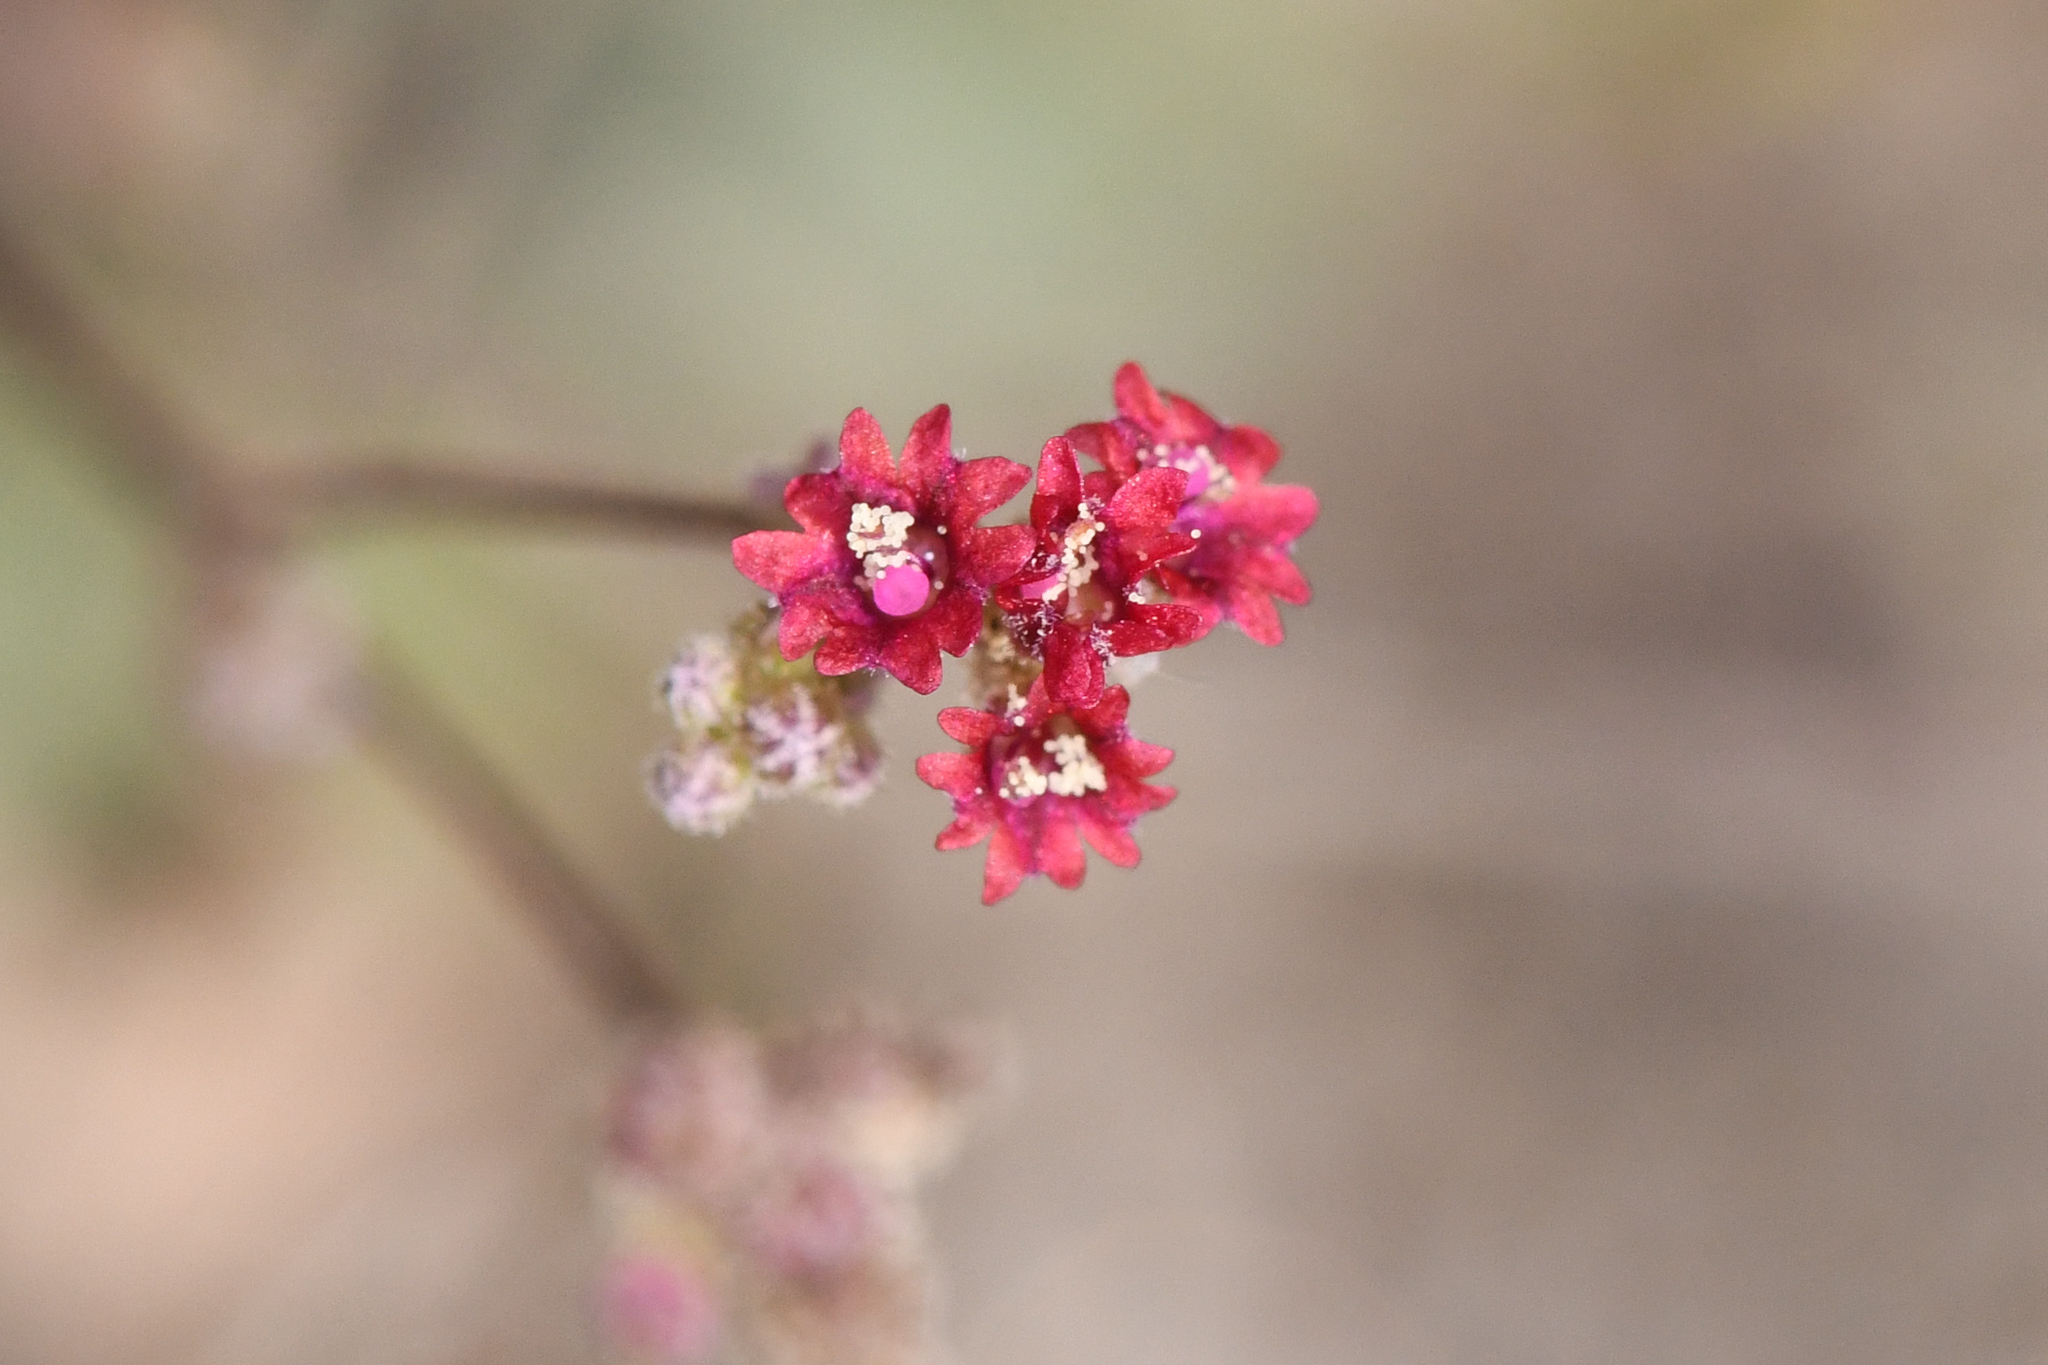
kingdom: Plantae
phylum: Tracheophyta
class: Magnoliopsida
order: Caryophyllales
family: Nyctaginaceae
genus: Boerhavia
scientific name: Boerhavia coccinea
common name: Scarlet spiderling
